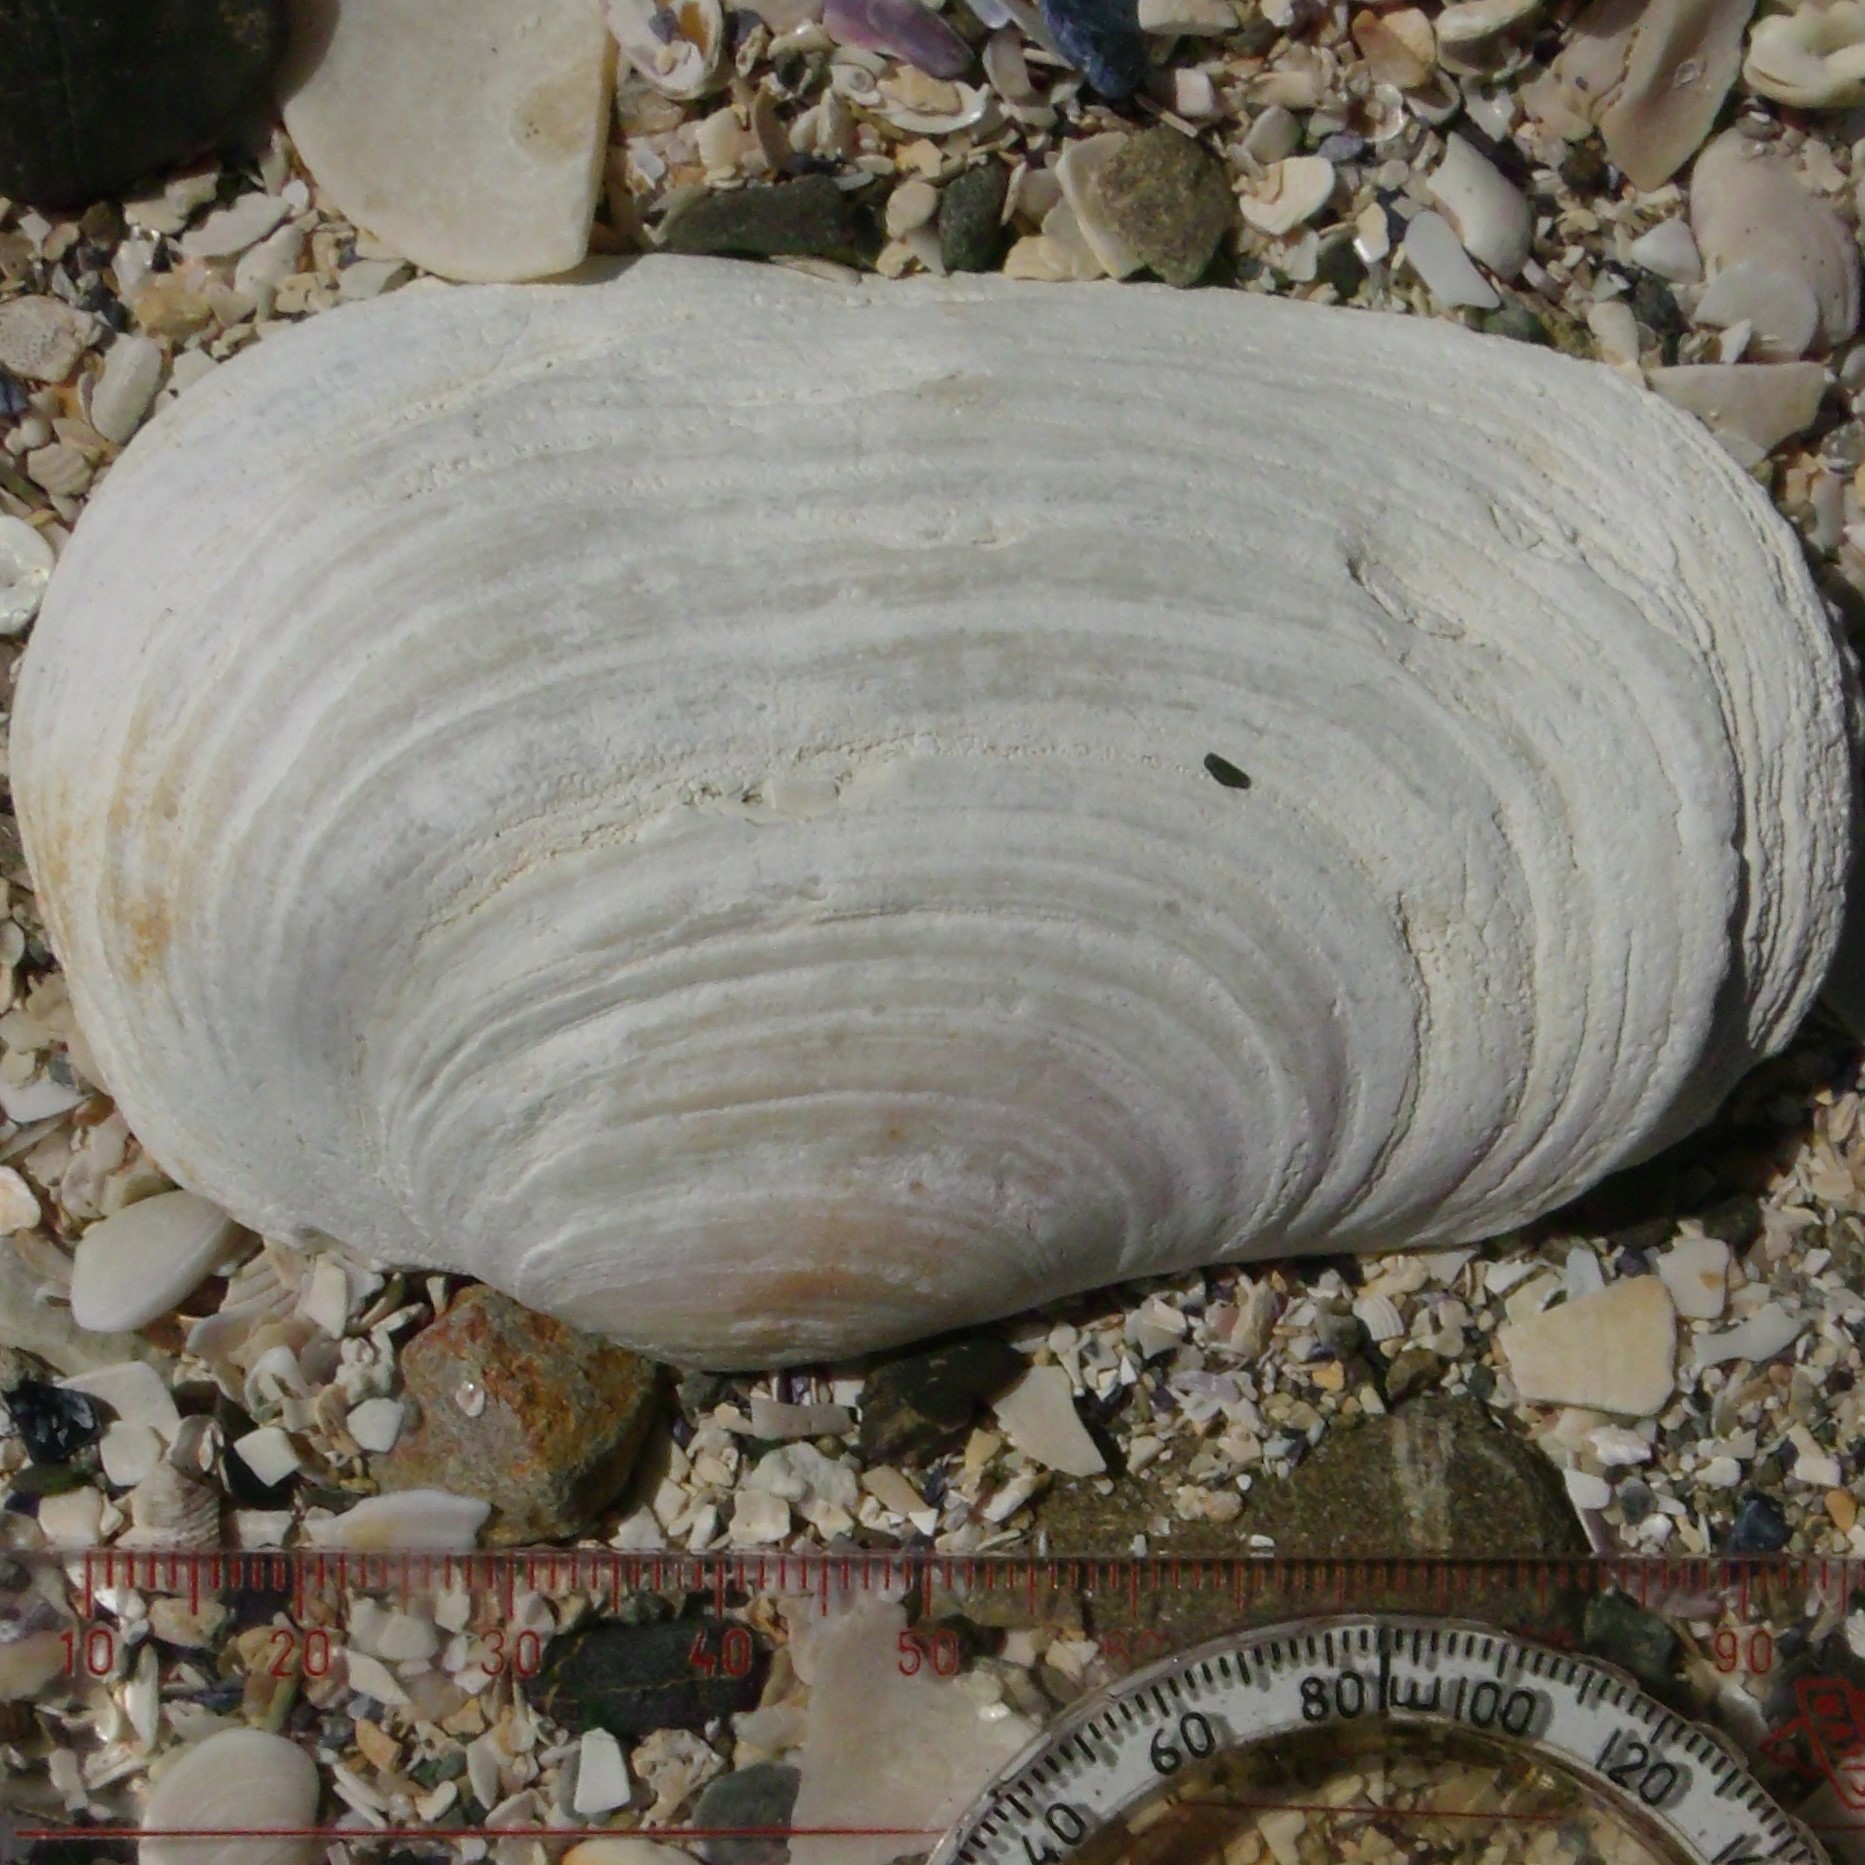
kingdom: Animalia
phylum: Mollusca
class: Bivalvia
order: Adapedonta
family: Hiatellidae
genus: Panopea
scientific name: Panopea zelandica
